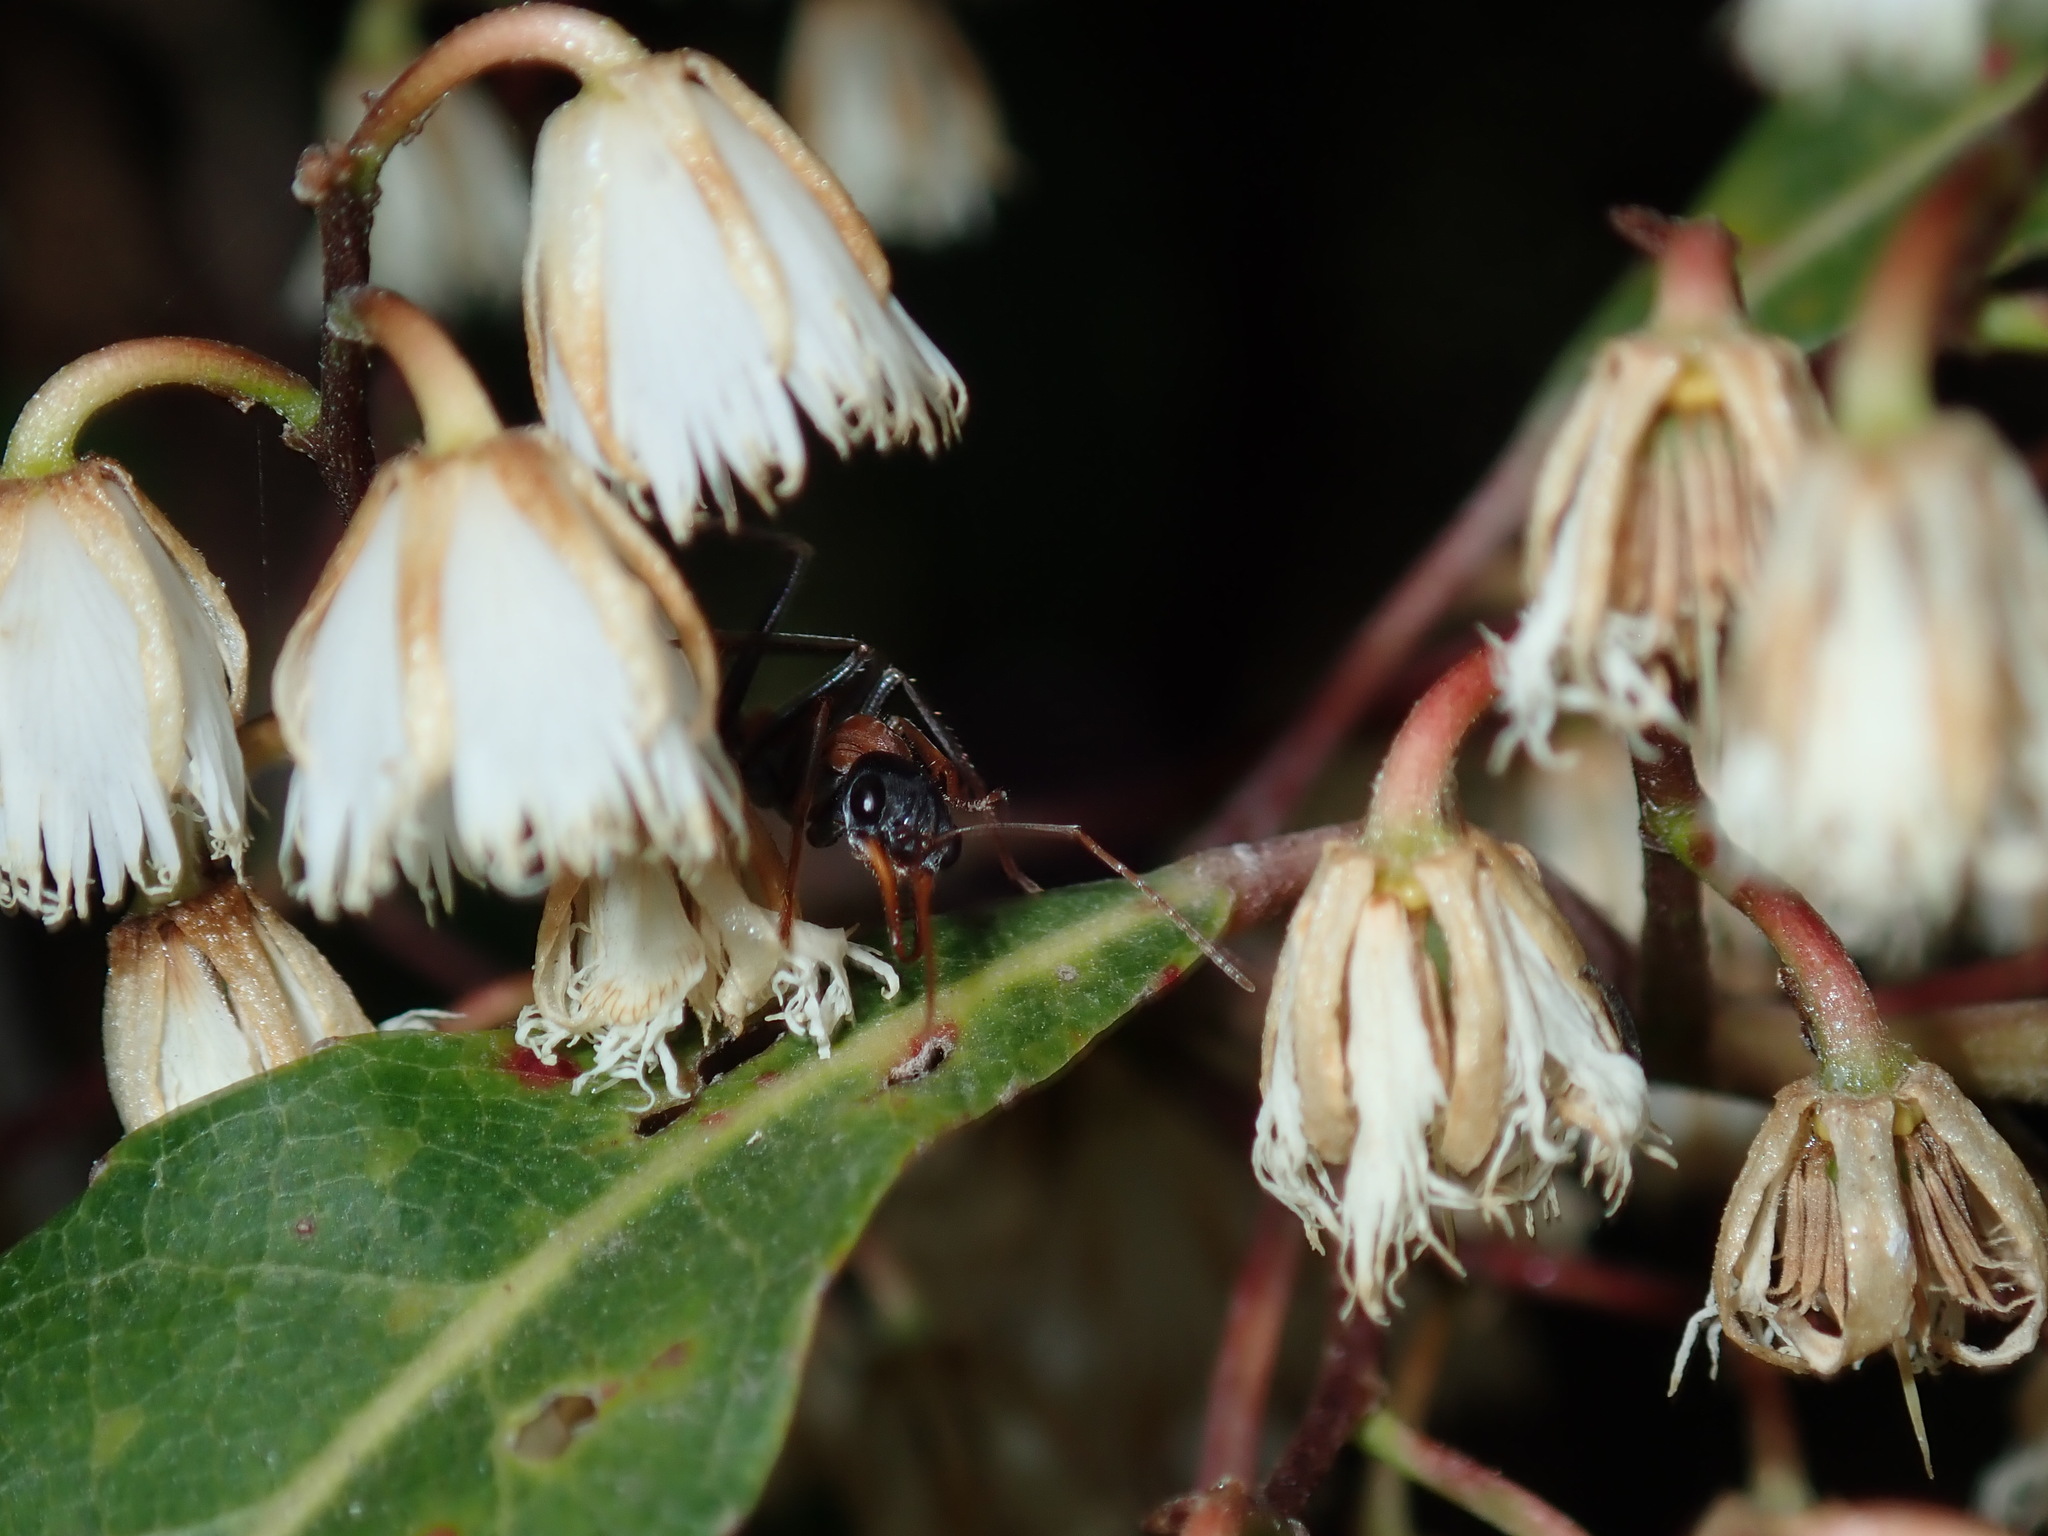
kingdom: Animalia
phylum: Arthropoda
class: Insecta
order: Hymenoptera
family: Formicidae
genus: Myrmecia
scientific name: Myrmecia nigrocincta
